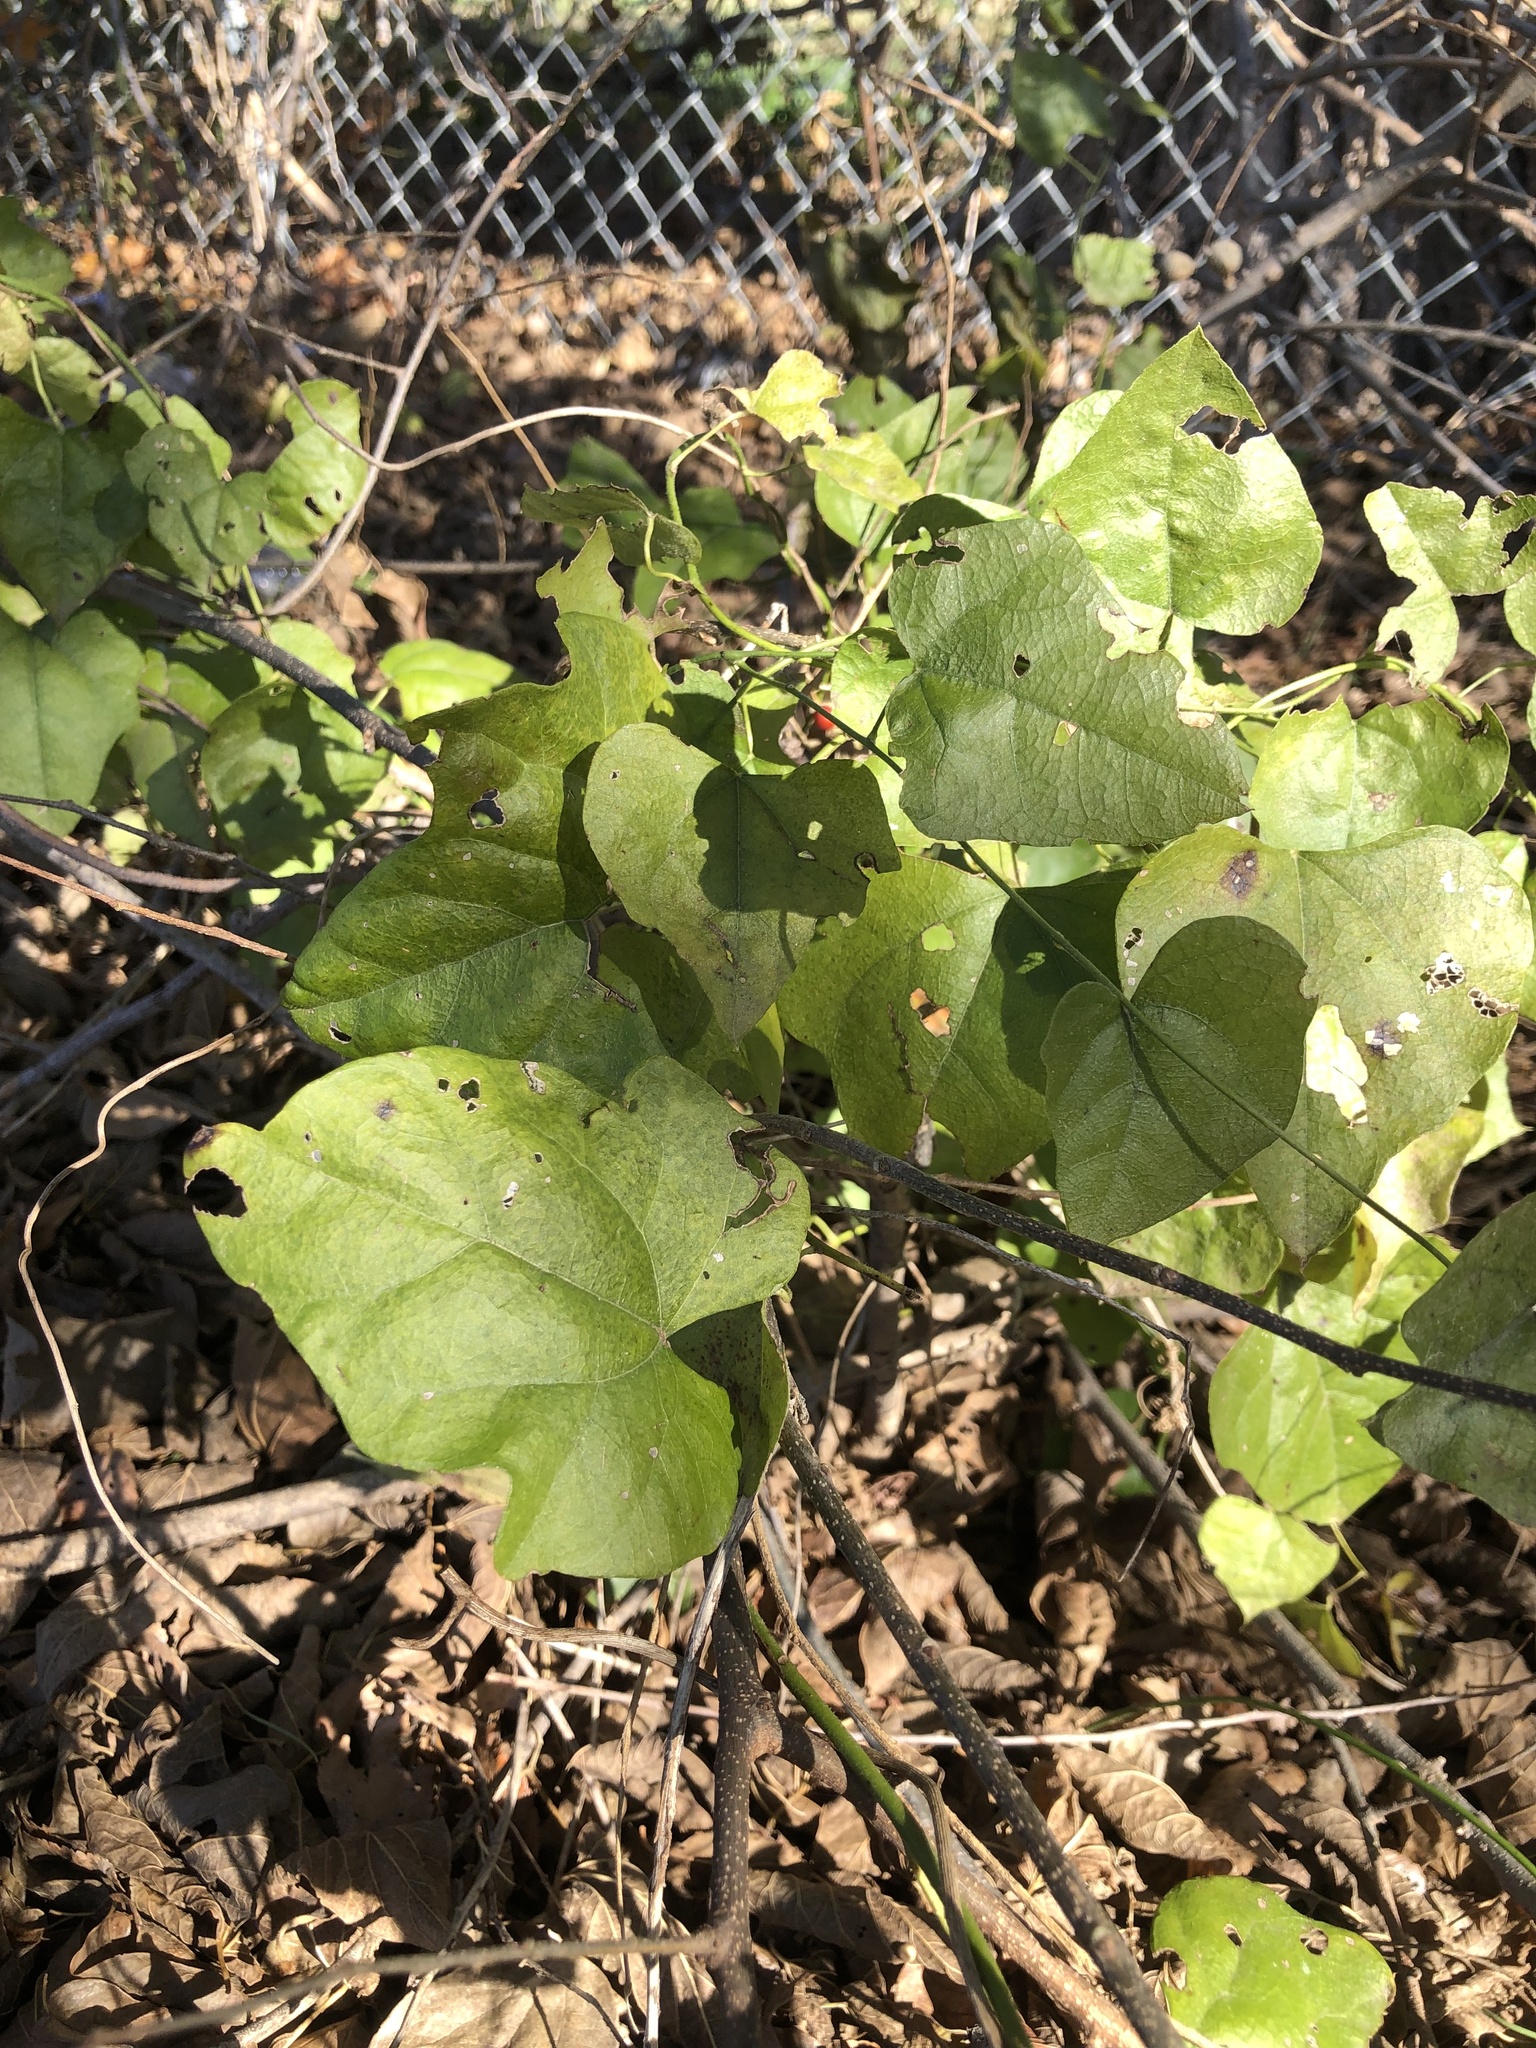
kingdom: Plantae
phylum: Tracheophyta
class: Magnoliopsida
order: Ranunculales
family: Menispermaceae
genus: Cocculus
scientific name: Cocculus carolinus
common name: Carolina moonseed
